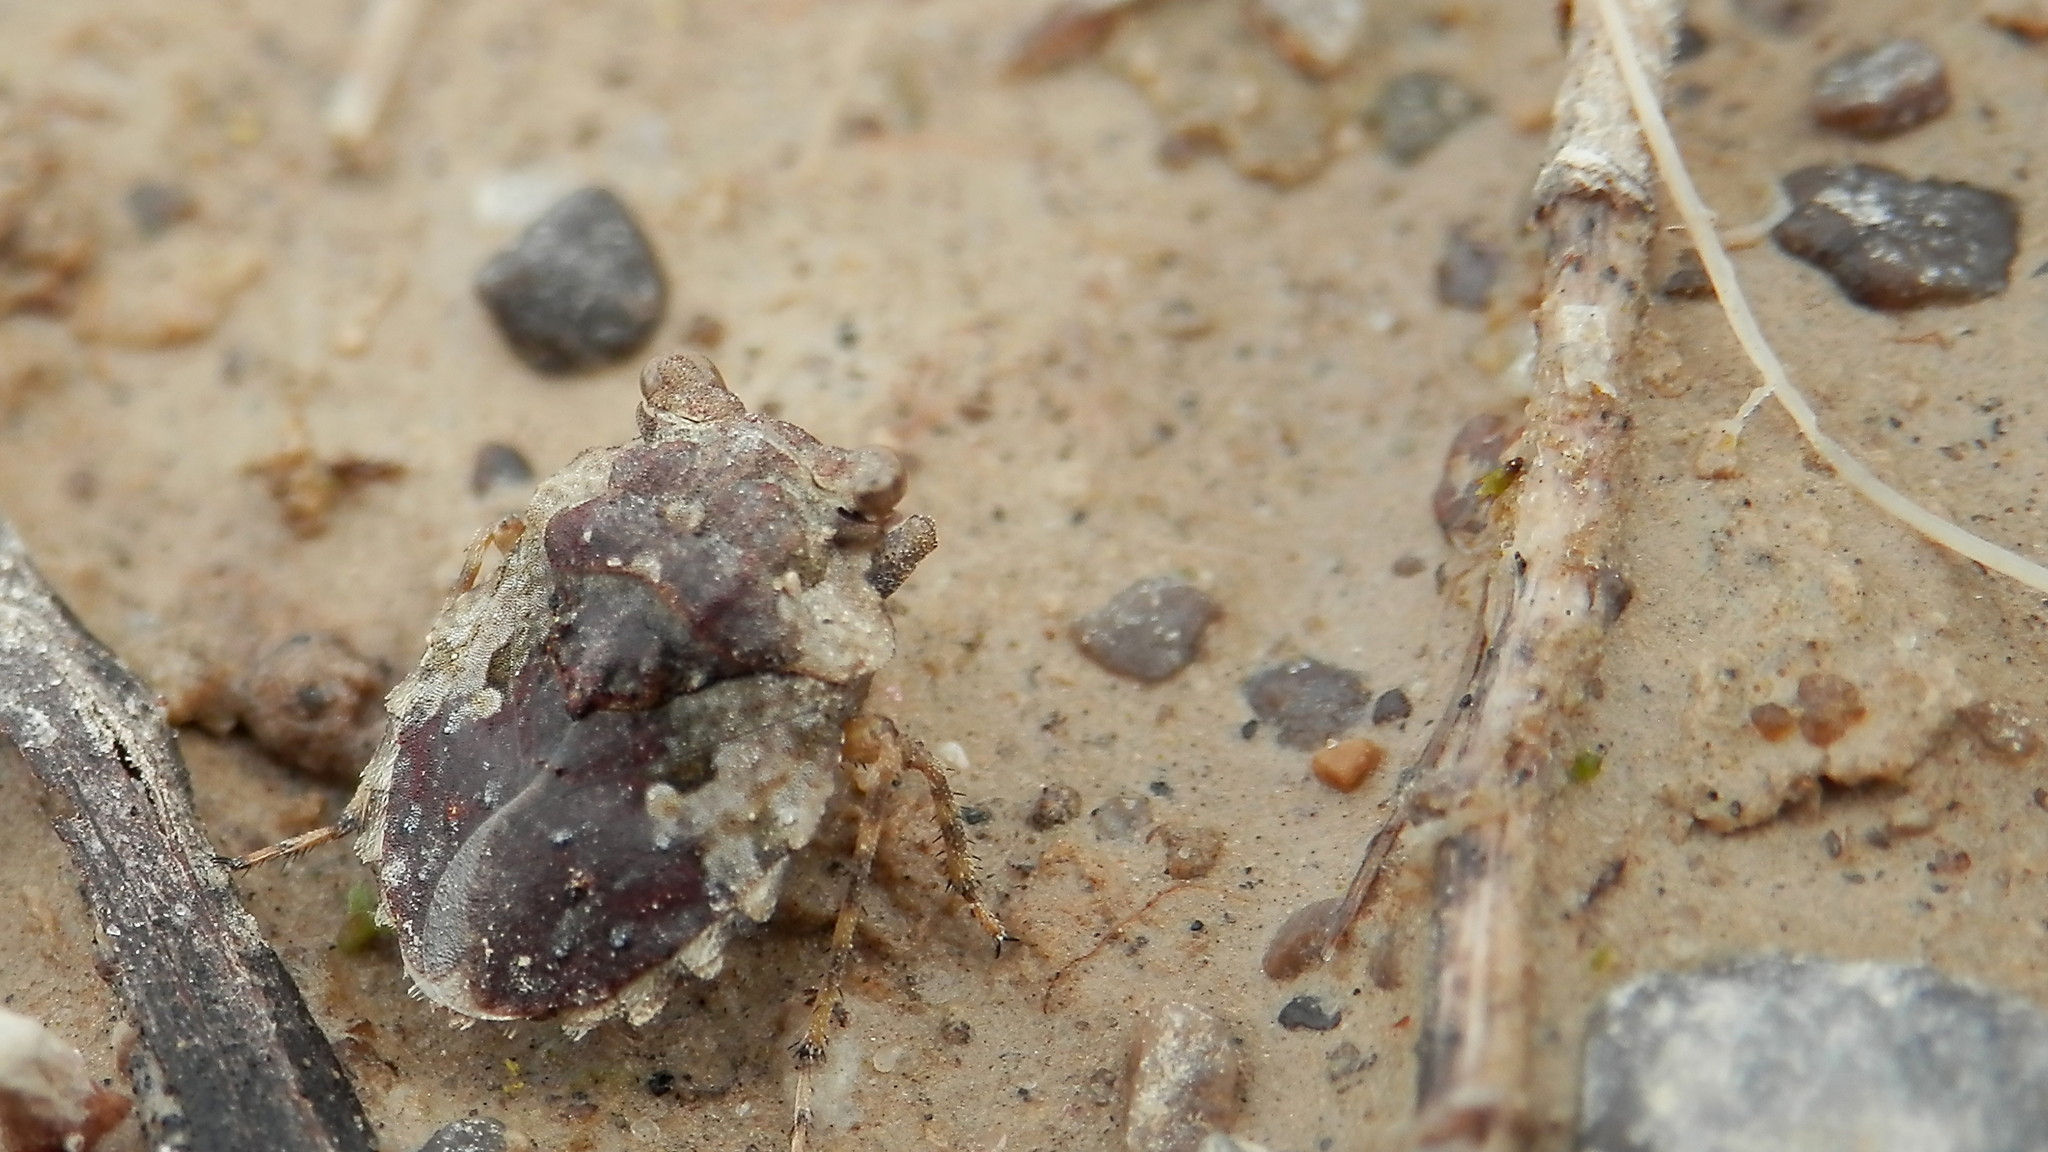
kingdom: Animalia
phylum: Arthropoda
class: Insecta
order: Hemiptera
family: Gelastocoridae
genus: Gelastocoris
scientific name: Gelastocoris oculatus
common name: Toad bug
